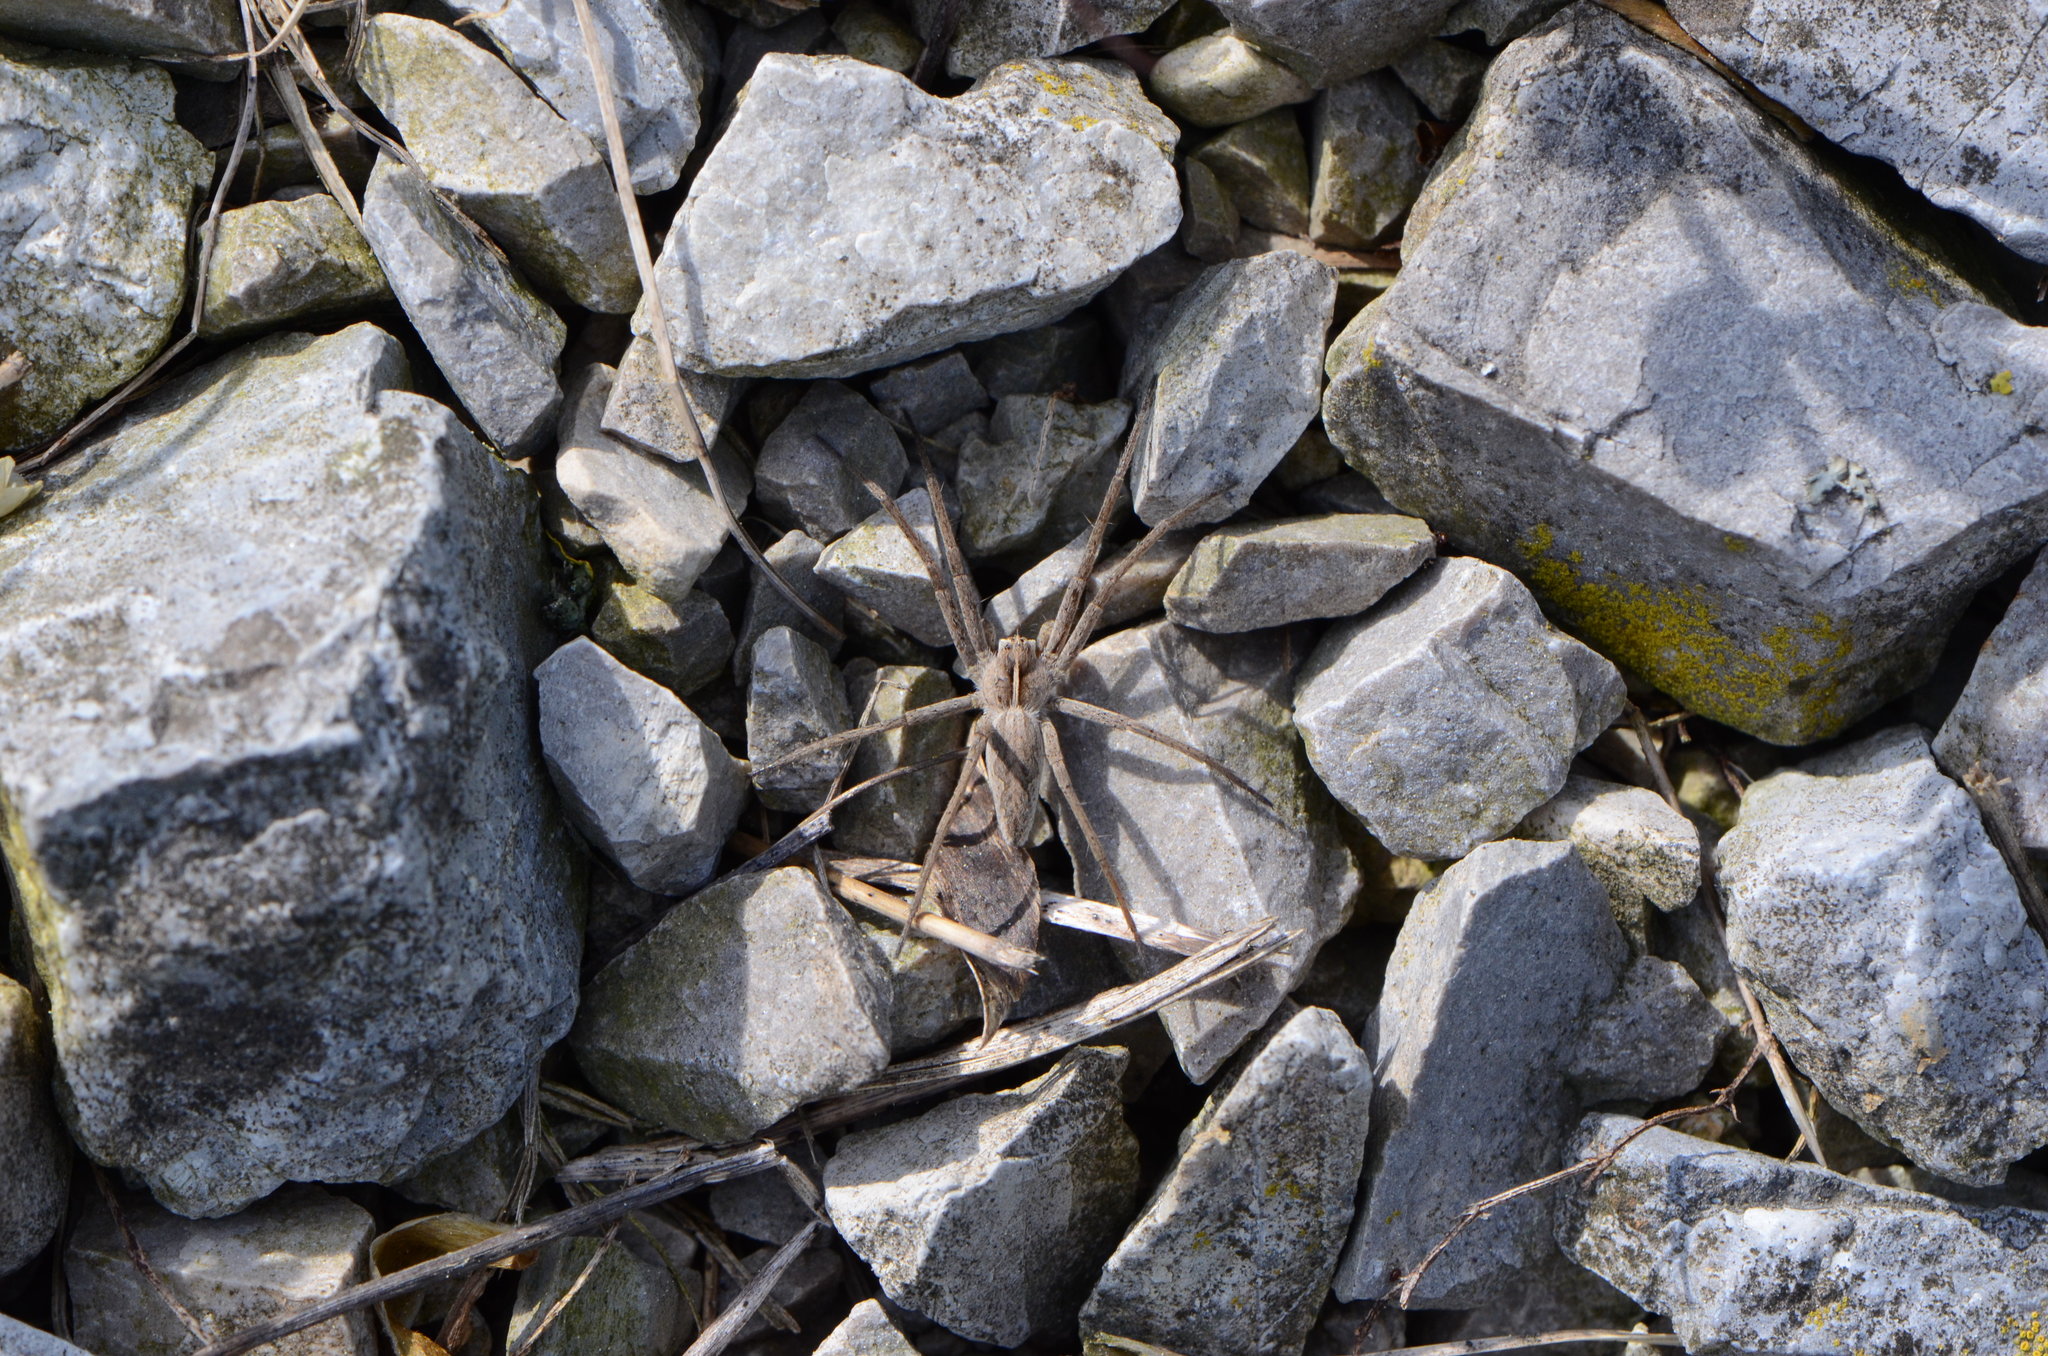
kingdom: Animalia
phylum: Arthropoda
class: Arachnida
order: Araneae
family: Pisauridae
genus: Pisaura
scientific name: Pisaura mirabilis
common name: Tent spider
